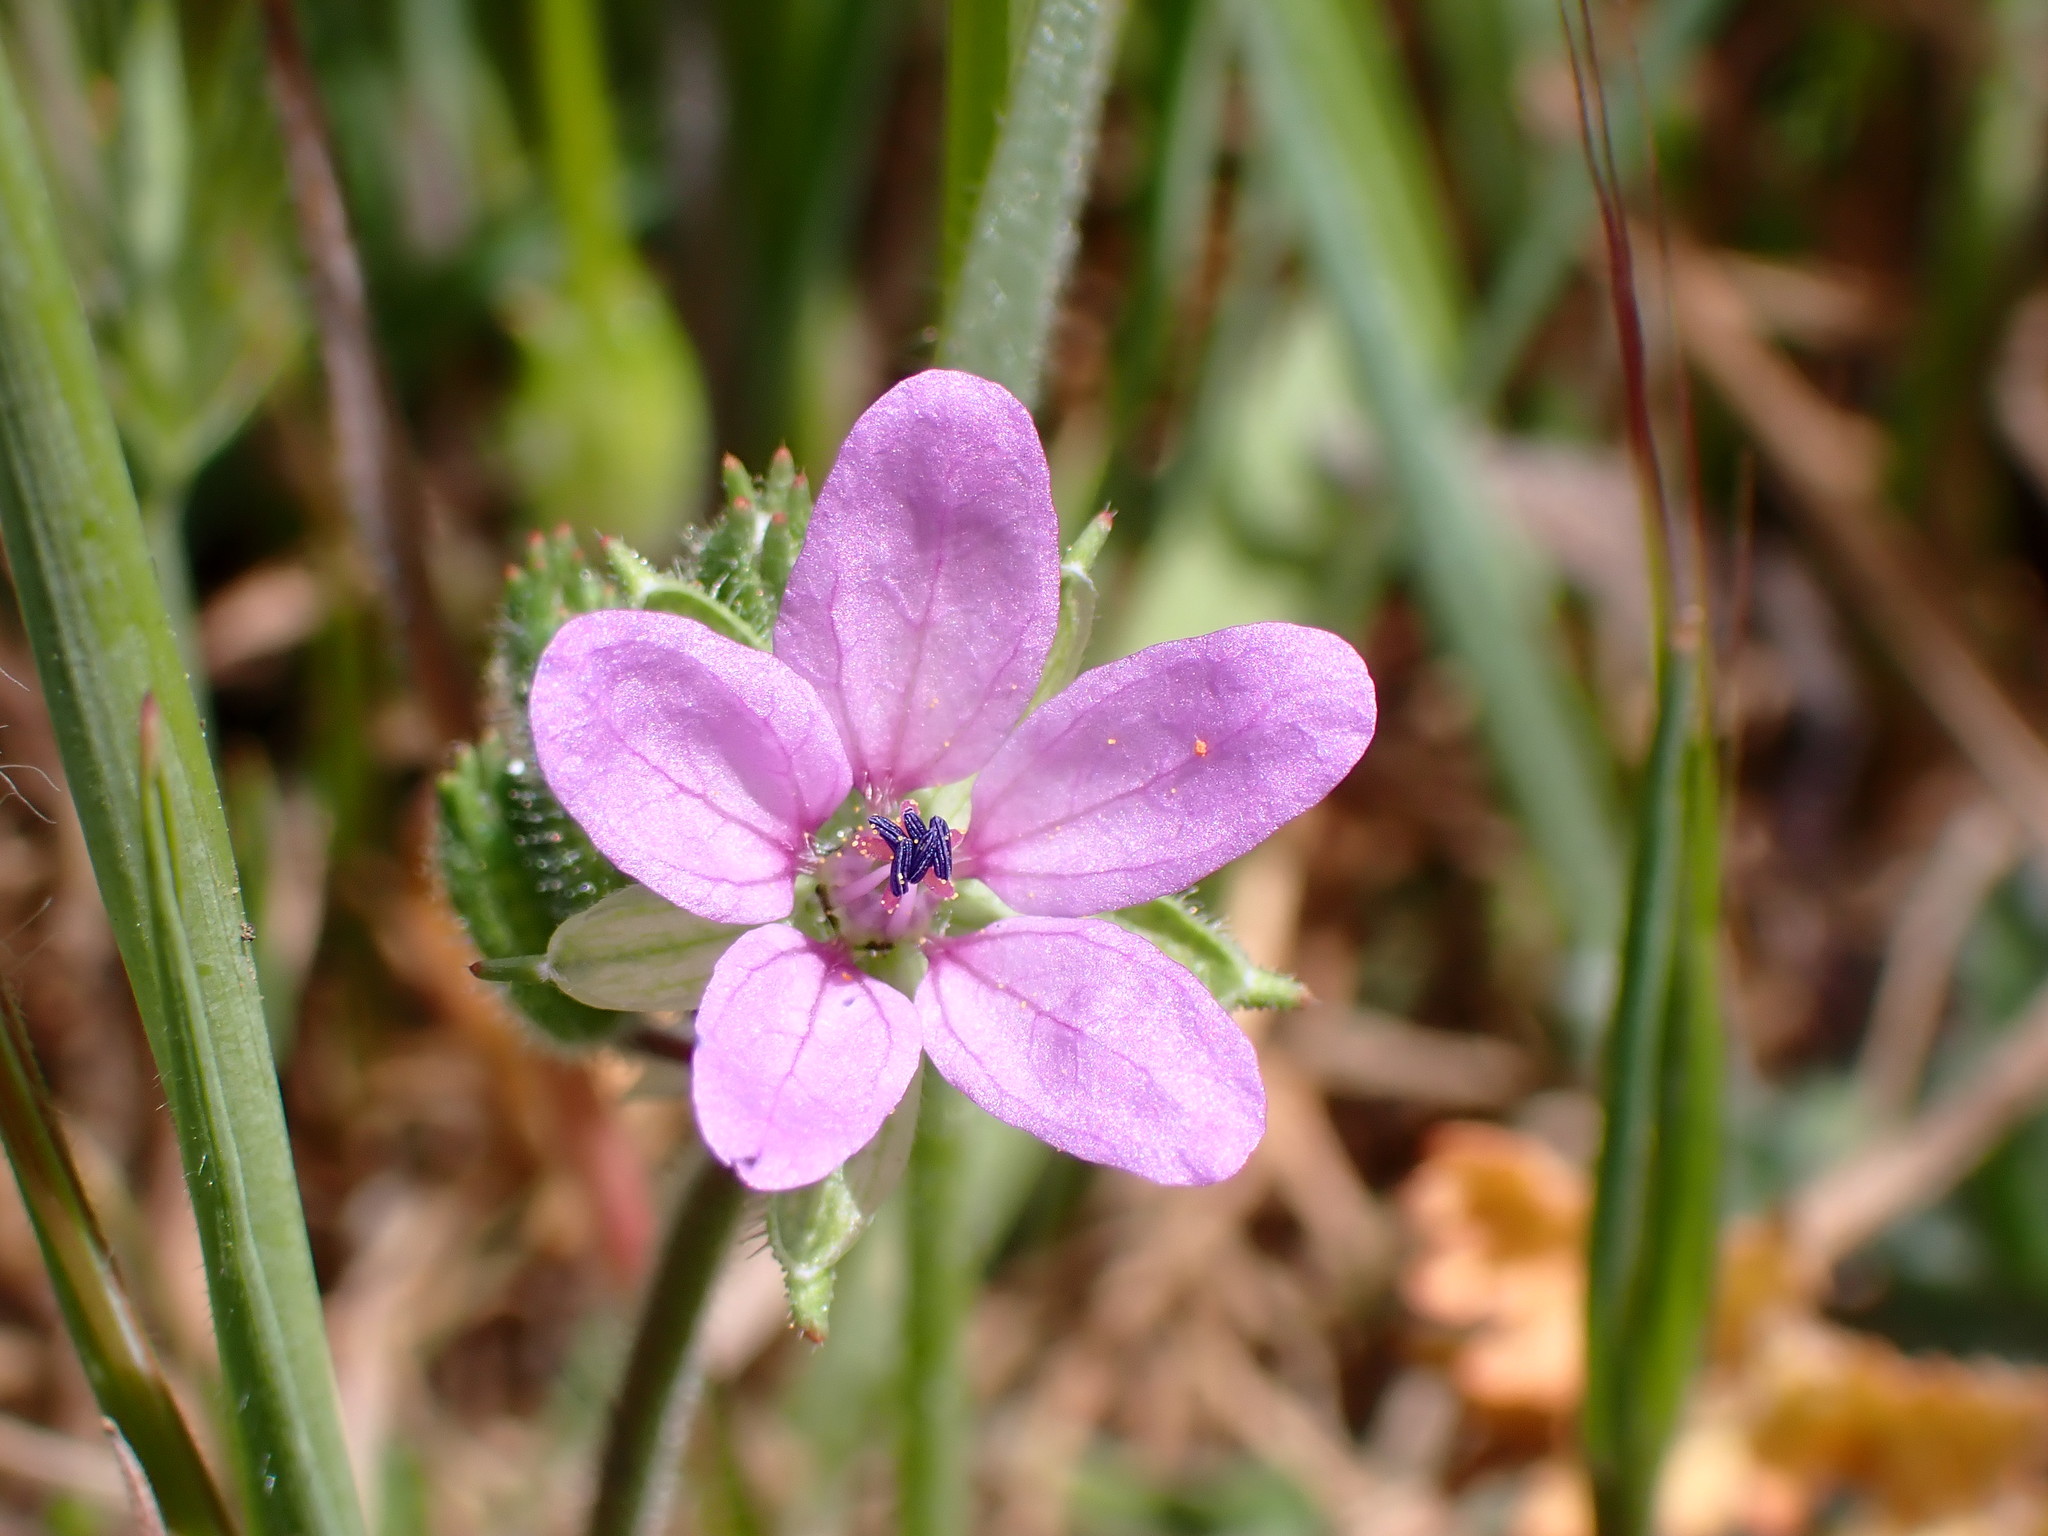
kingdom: Plantae
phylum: Tracheophyta
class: Magnoliopsida
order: Geraniales
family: Geraniaceae
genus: Erodium
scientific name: Erodium moschatum
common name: Musk stork's-bill
